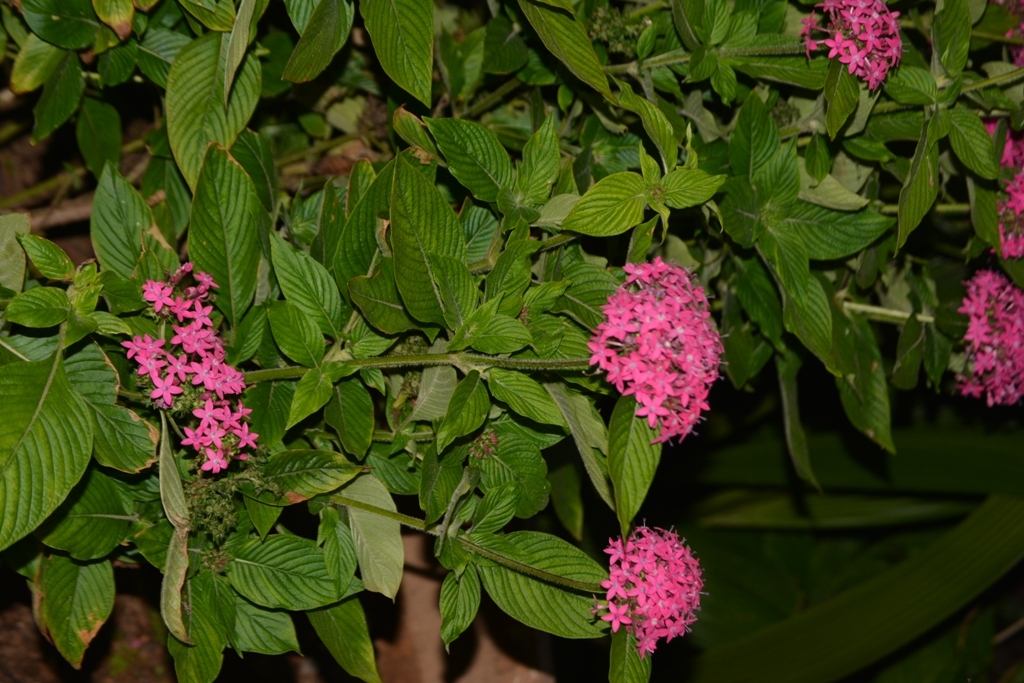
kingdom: Plantae
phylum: Tracheophyta
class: Magnoliopsida
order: Gentianales
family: Rubiaceae
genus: Crusea
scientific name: Crusea hispida
